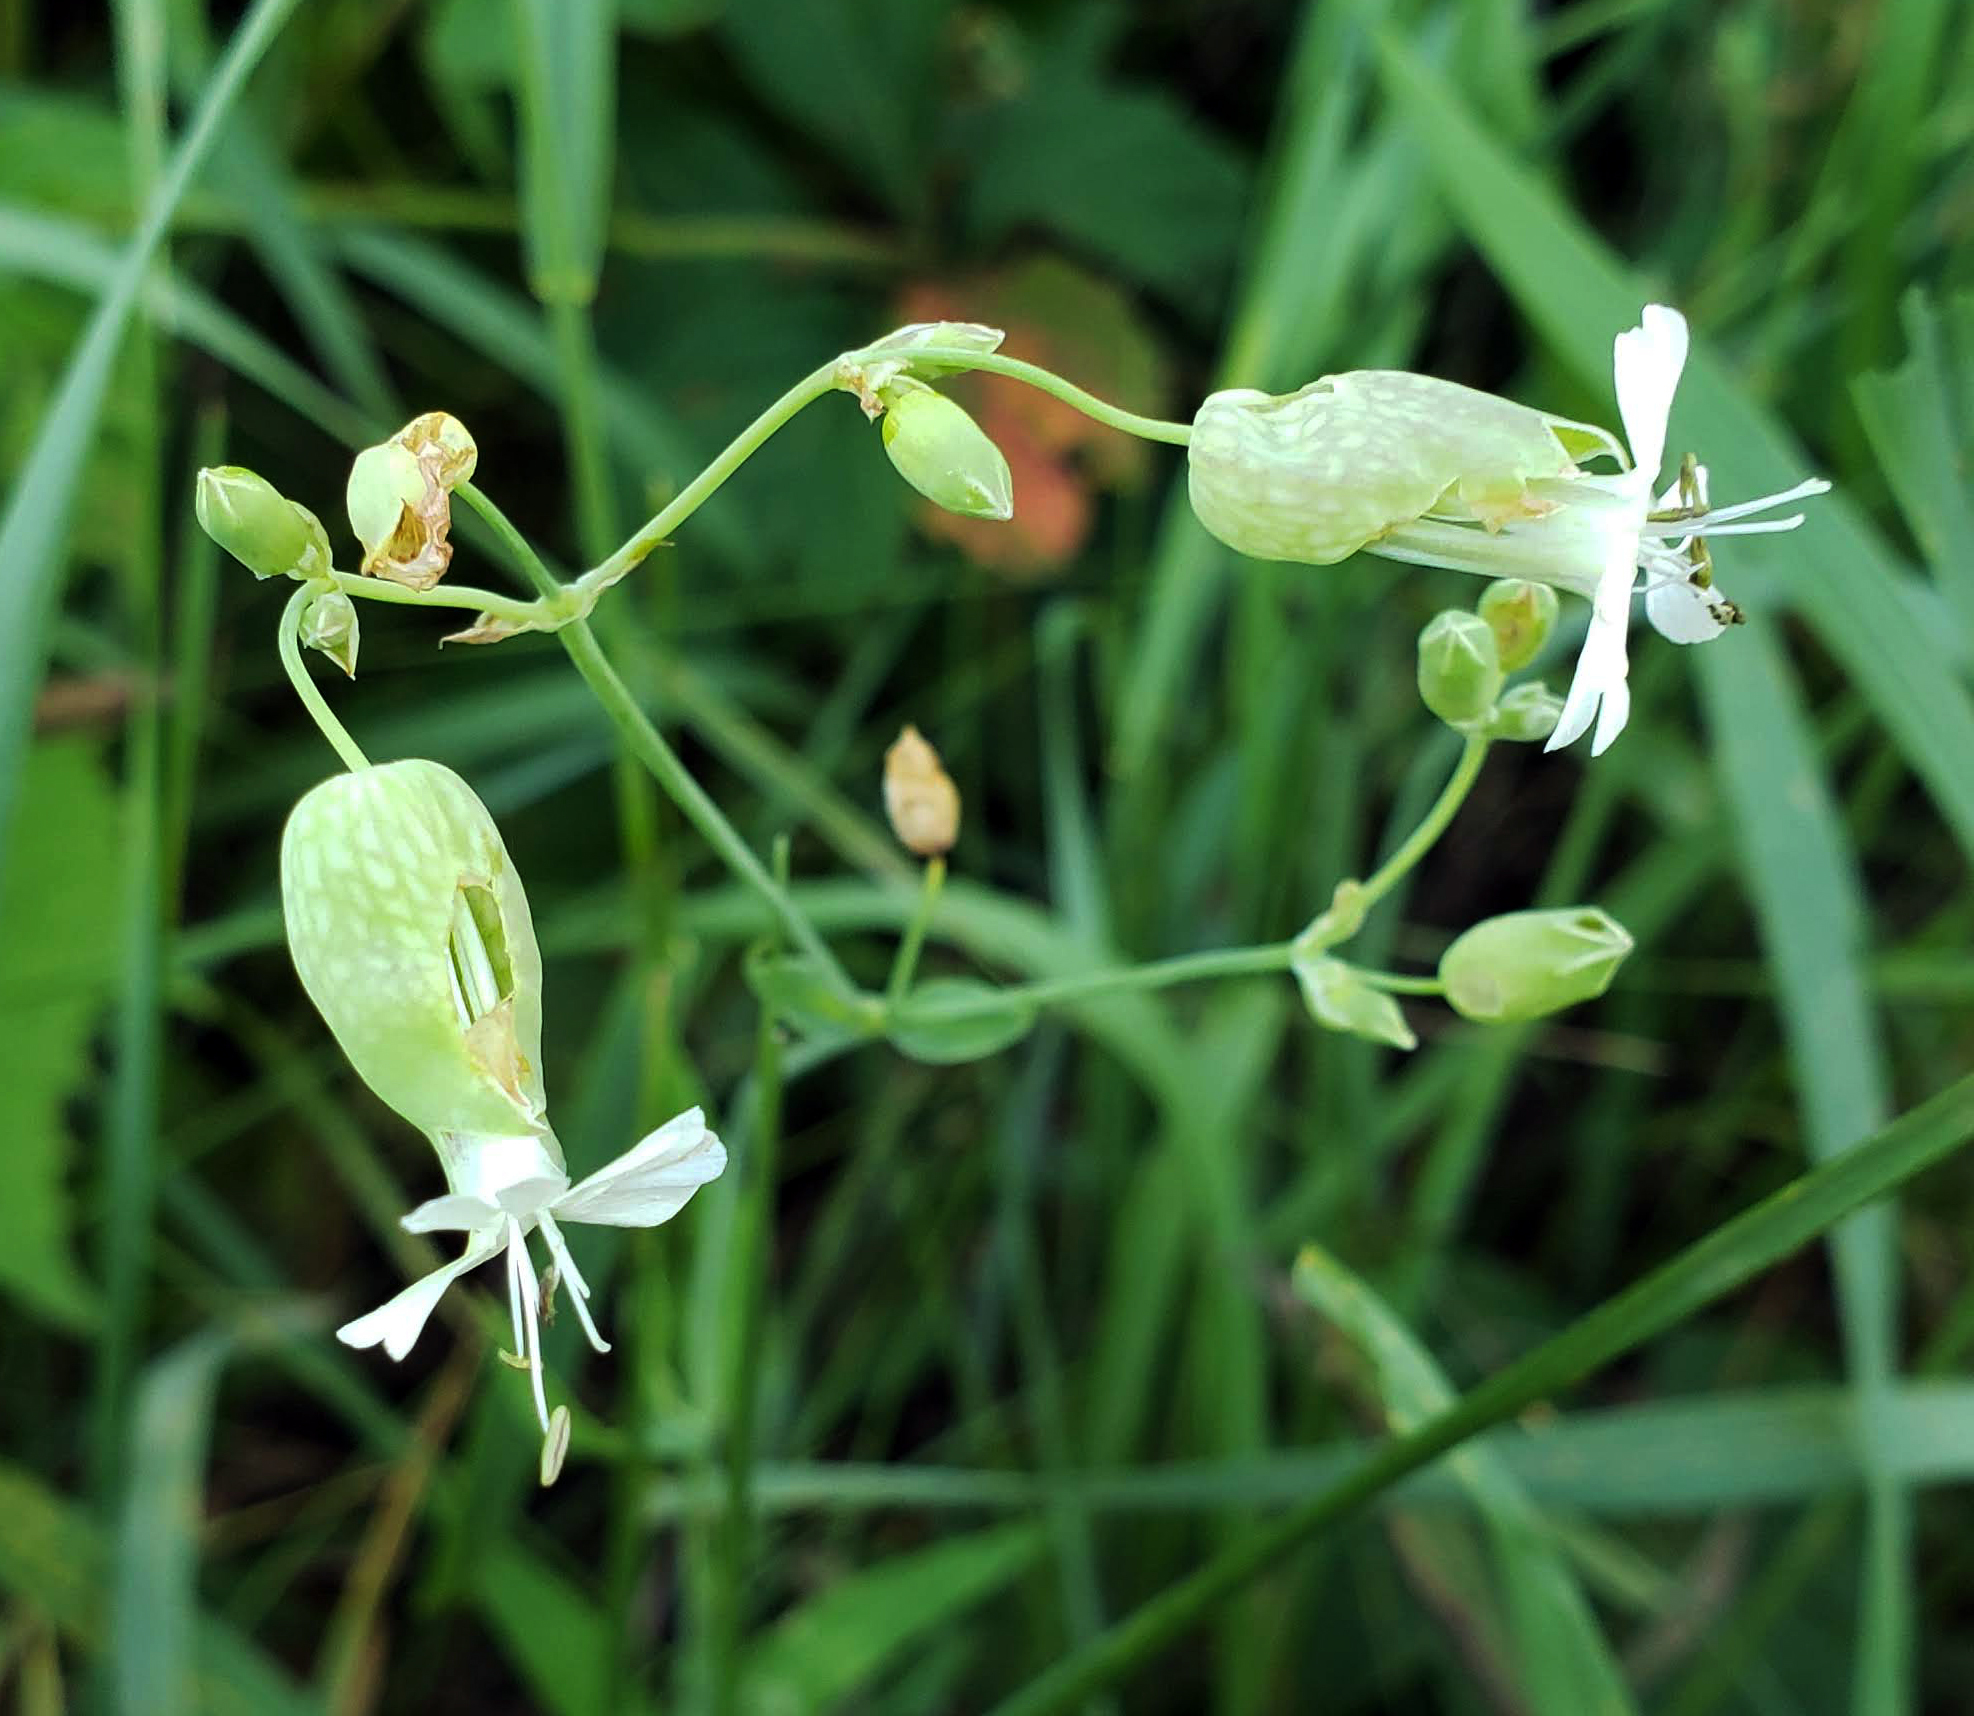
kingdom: Plantae
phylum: Tracheophyta
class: Magnoliopsida
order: Caryophyllales
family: Caryophyllaceae
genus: Silene
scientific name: Silene vulgaris
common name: Bladder campion
